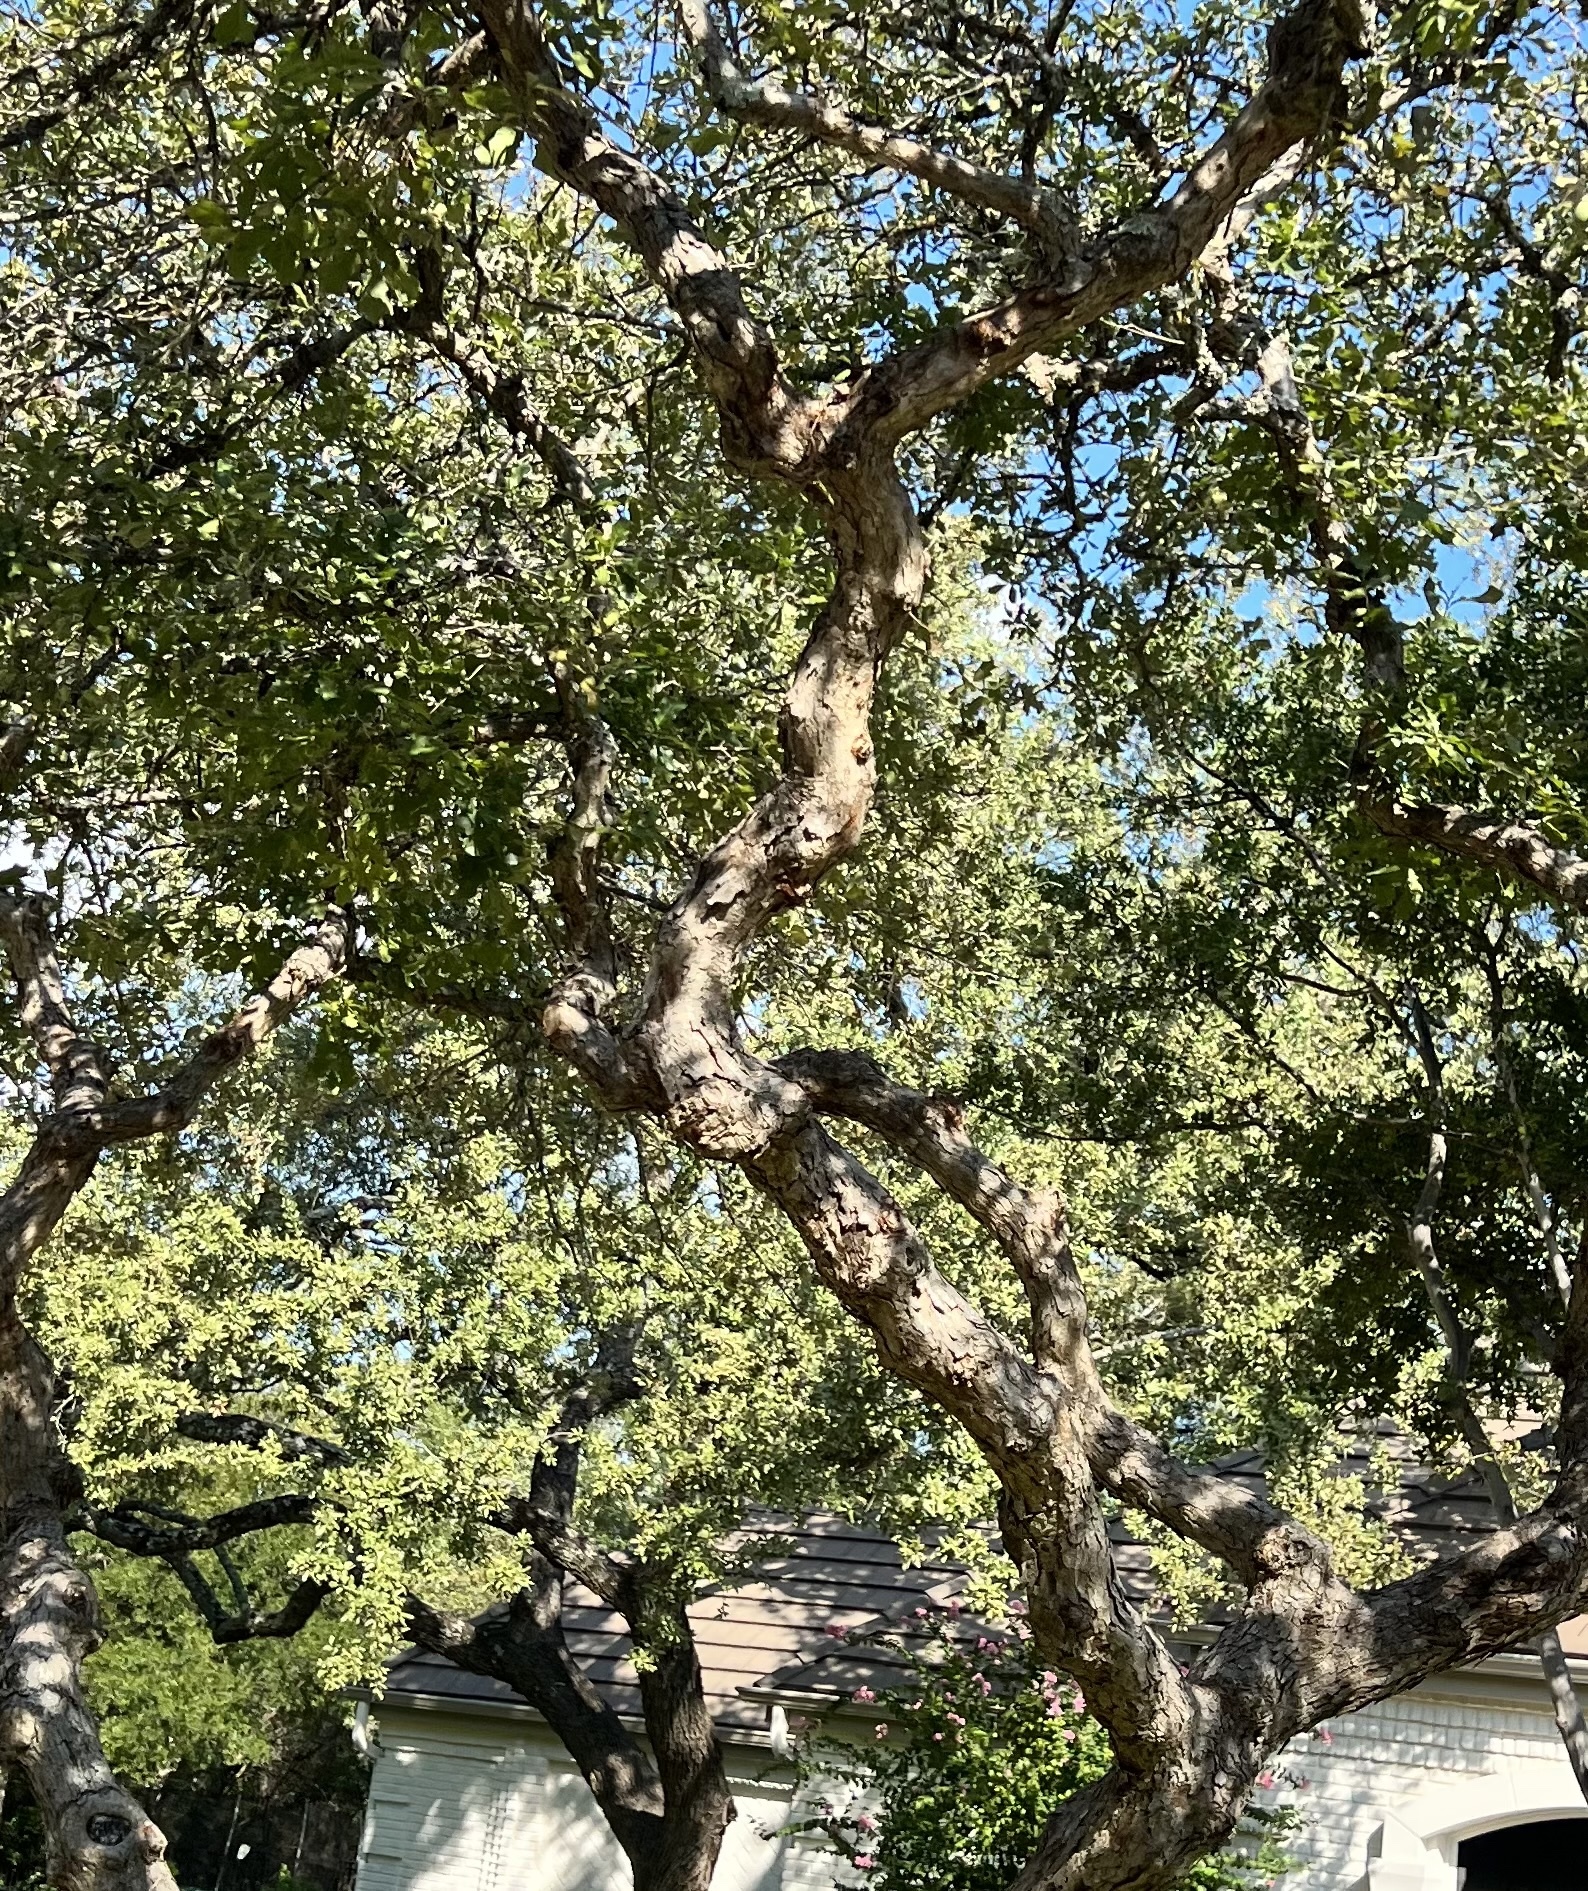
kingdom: Plantae
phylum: Tracheophyta
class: Magnoliopsida
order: Fagales
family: Fagaceae
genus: Quercus
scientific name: Quercus sinuata
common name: Durand oak
